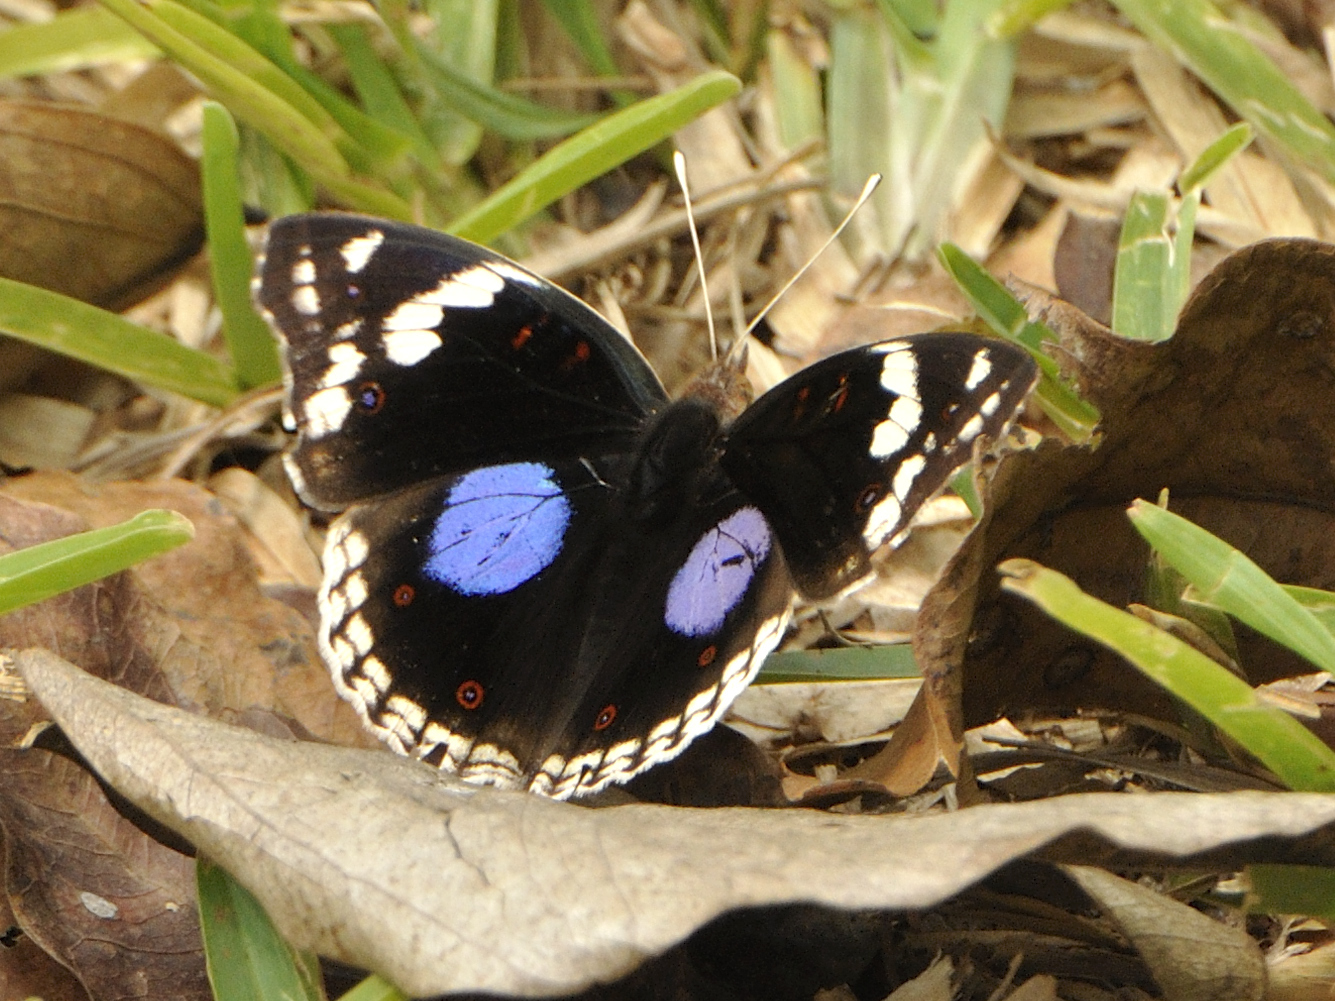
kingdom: Animalia
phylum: Arthropoda
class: Insecta
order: Lepidoptera
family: Nymphalidae
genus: Junonia
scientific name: Junonia oenone
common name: Dark blue pansy
